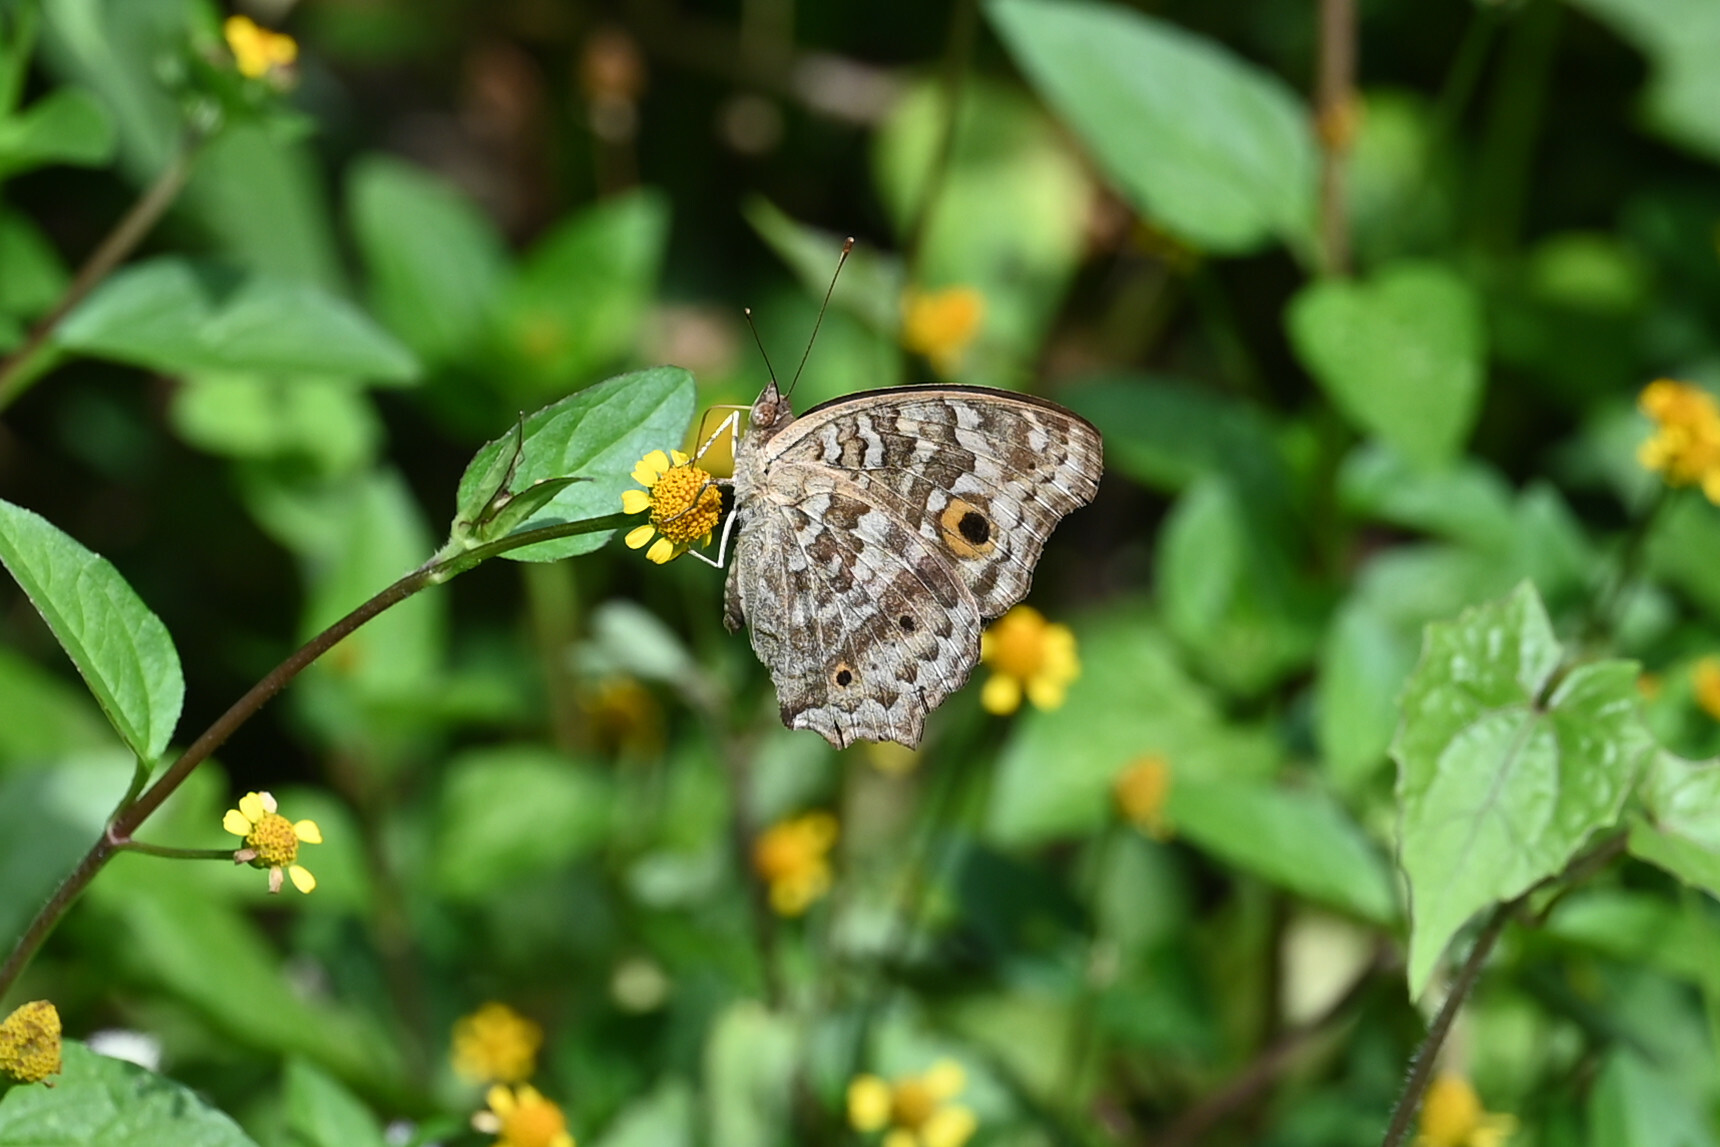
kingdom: Animalia
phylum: Arthropoda
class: Insecta
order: Lepidoptera
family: Nymphalidae
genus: Junonia
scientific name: Junonia lemonias
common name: Lemon pansy
